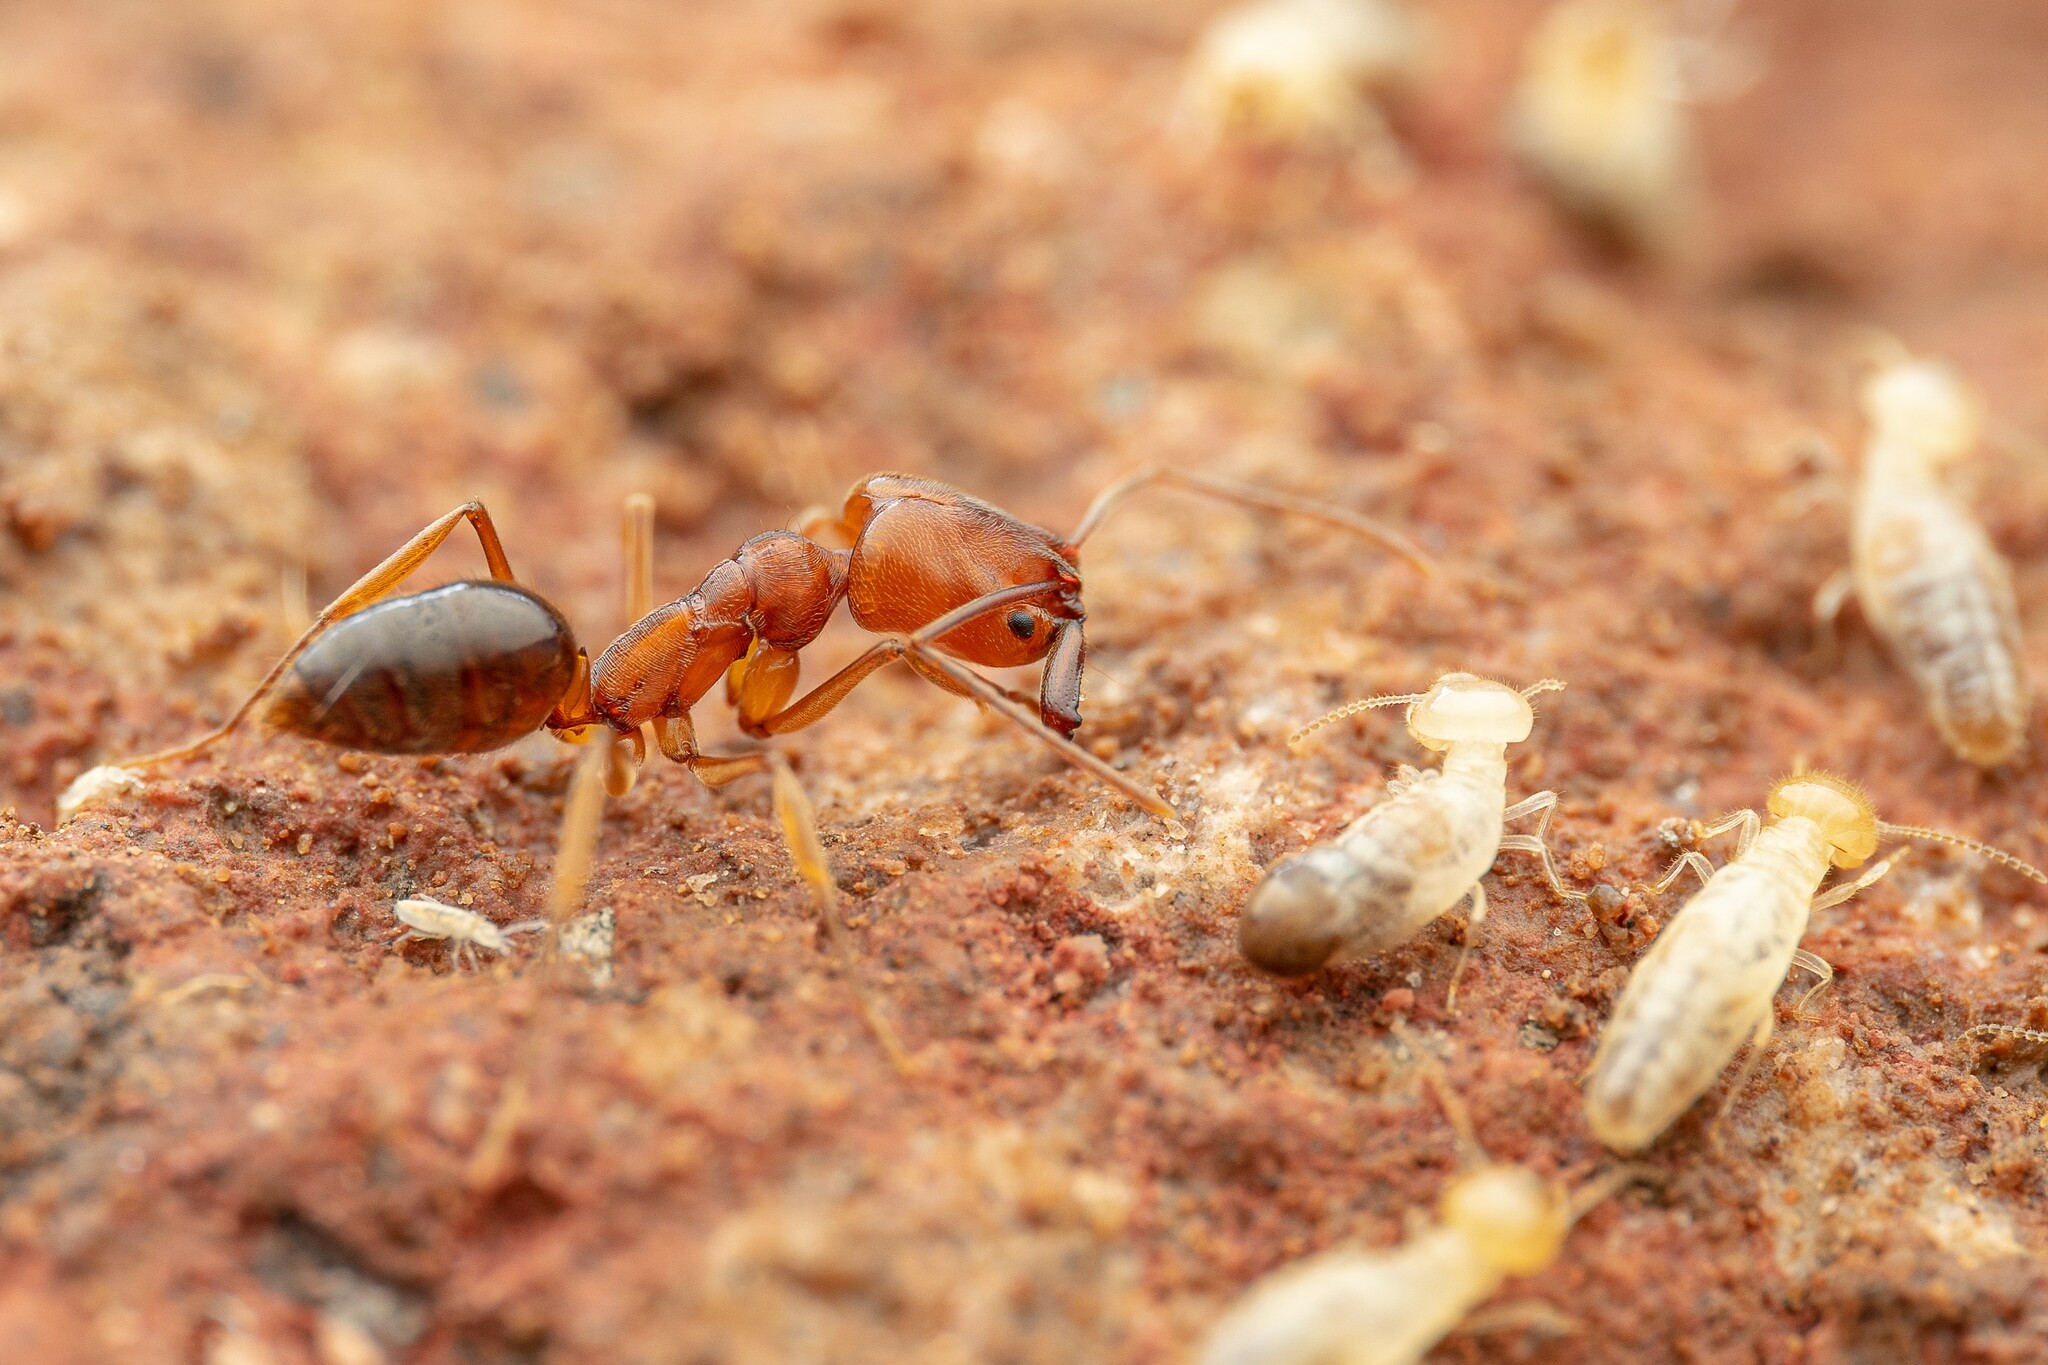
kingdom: Animalia
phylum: Arthropoda
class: Insecta
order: Hymenoptera
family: Formicidae
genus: Odontomachus
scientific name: Odontomachus clarus
